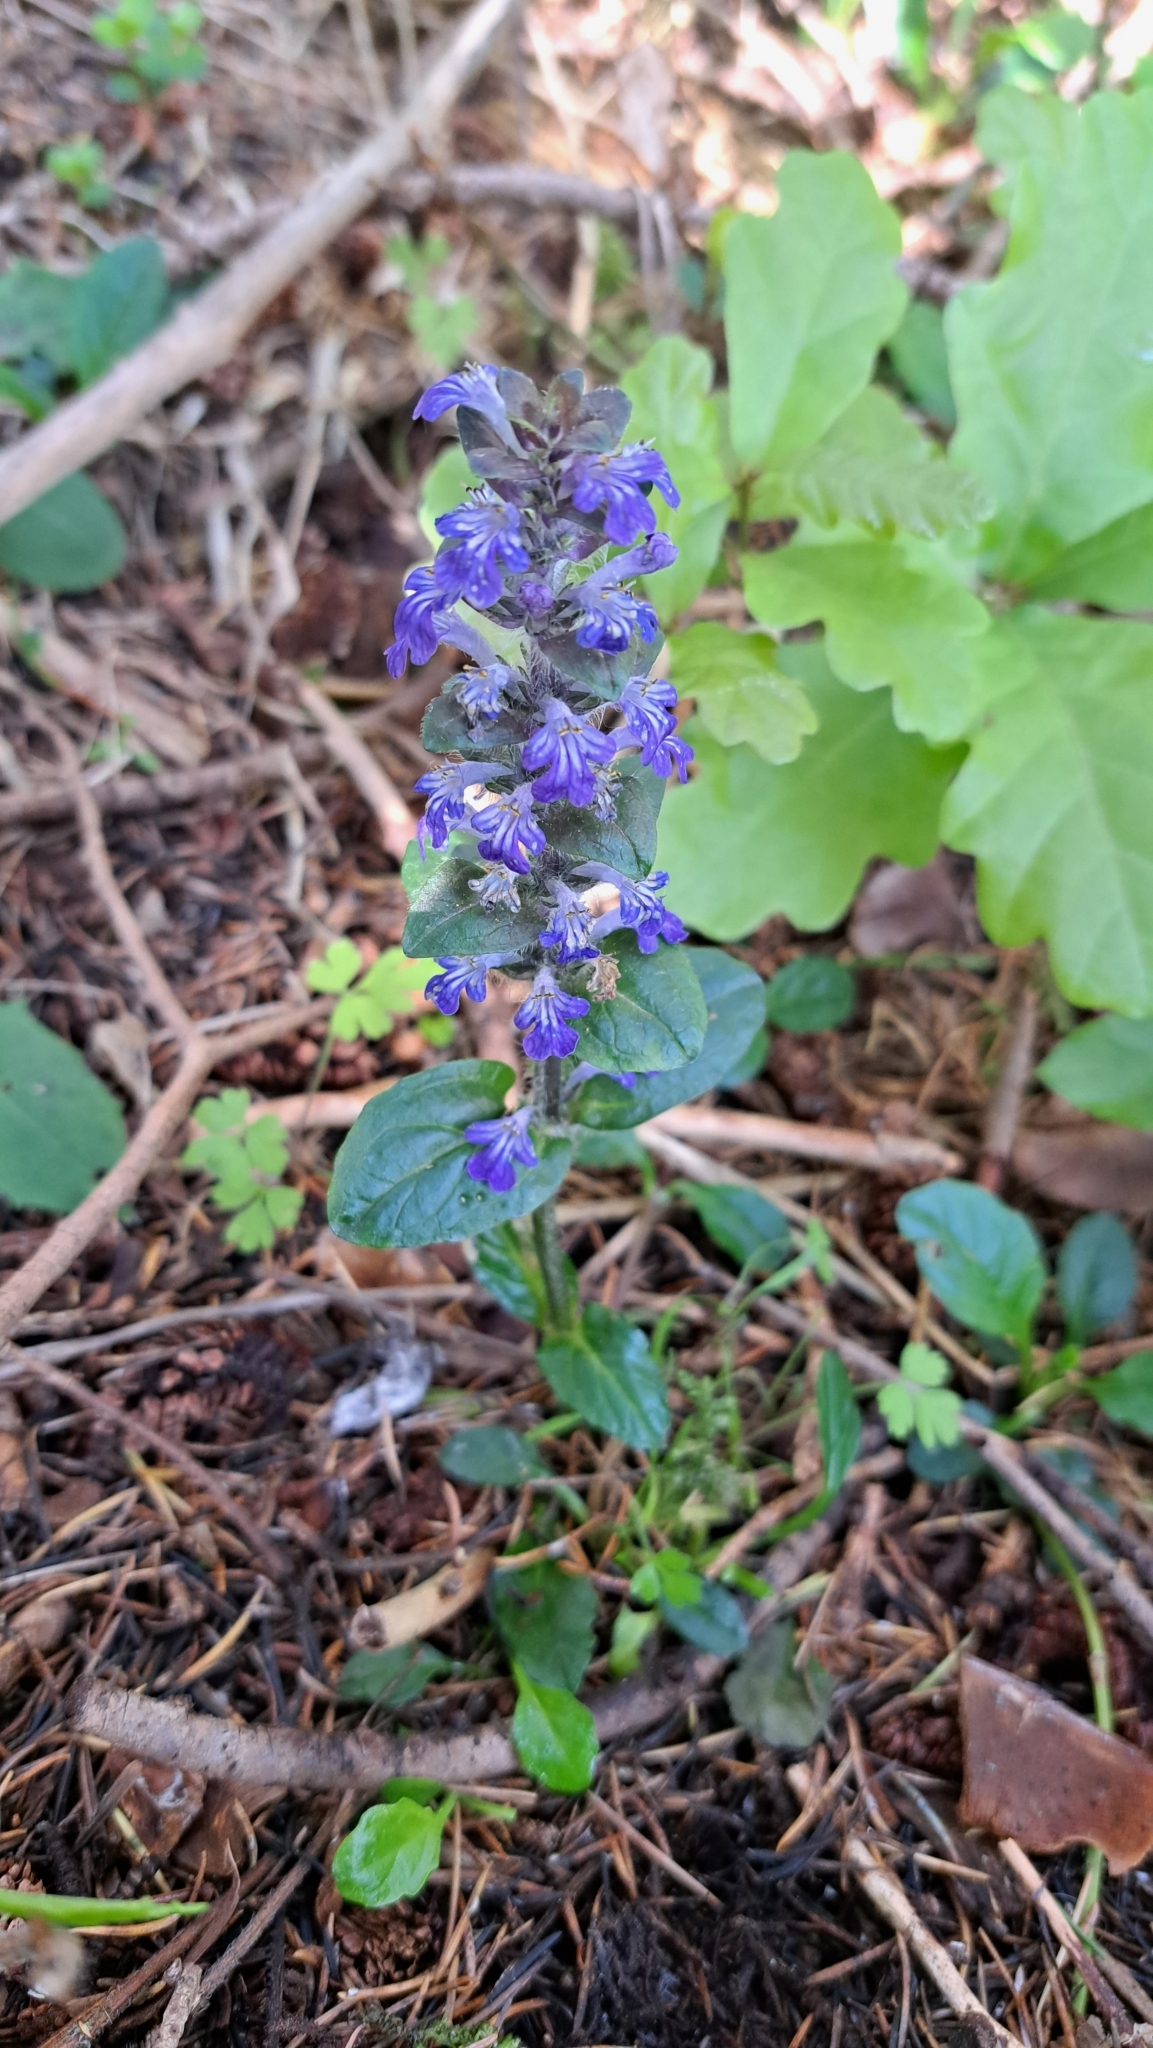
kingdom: Plantae
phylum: Tracheophyta
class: Magnoliopsida
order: Lamiales
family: Lamiaceae
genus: Ajuga
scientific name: Ajuga reptans
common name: Bugle
